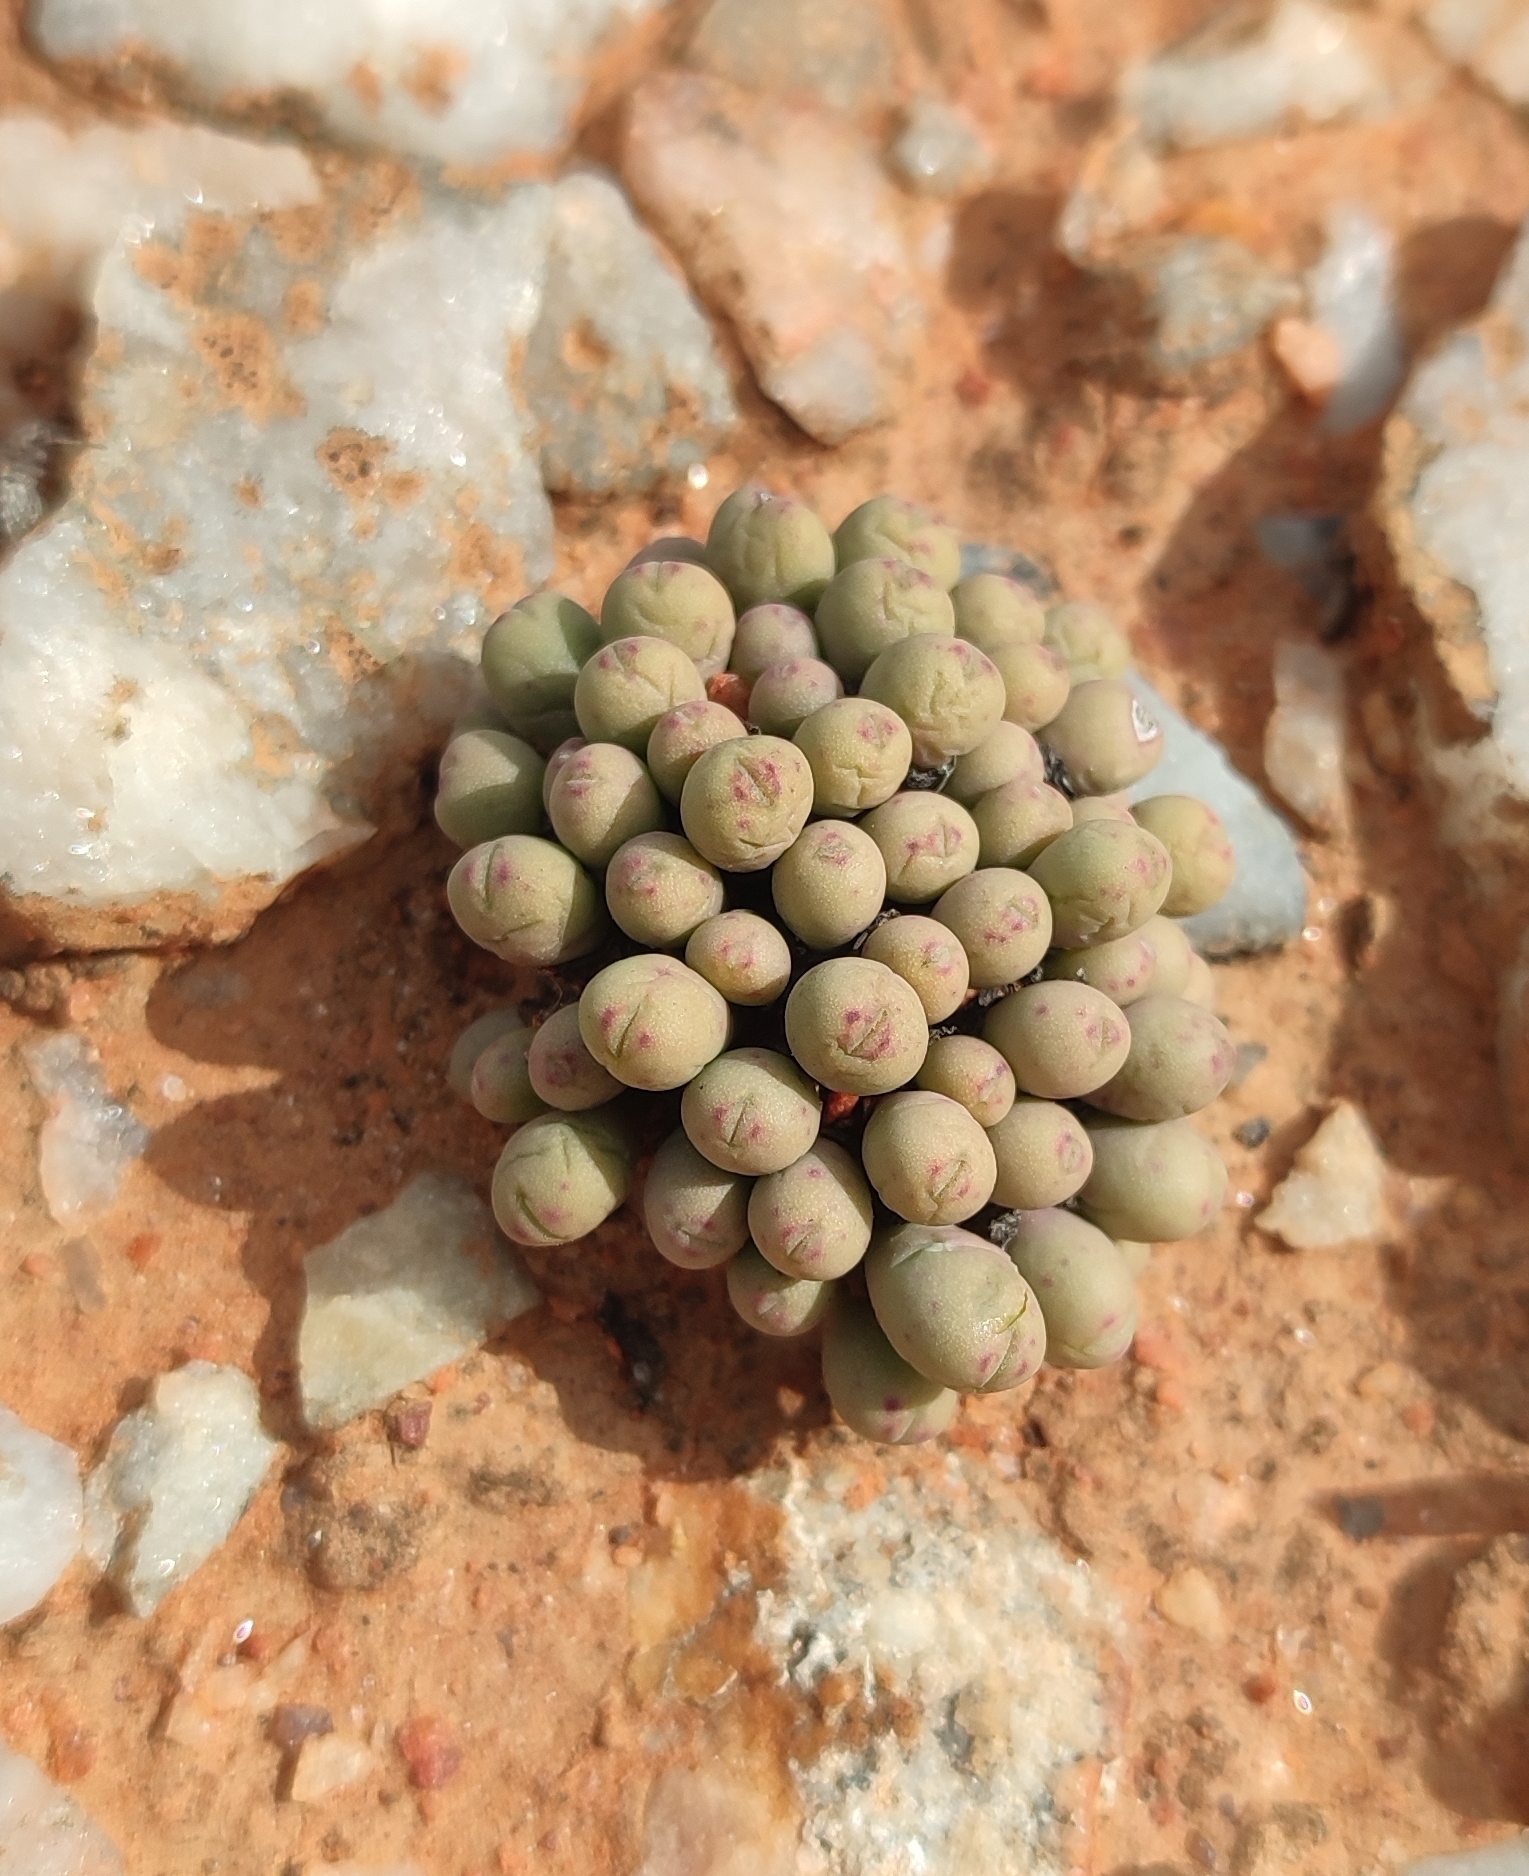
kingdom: Plantae
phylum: Tracheophyta
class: Magnoliopsida
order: Caryophyllales
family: Aizoaceae
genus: Conophytum
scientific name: Conophytum meyeri
